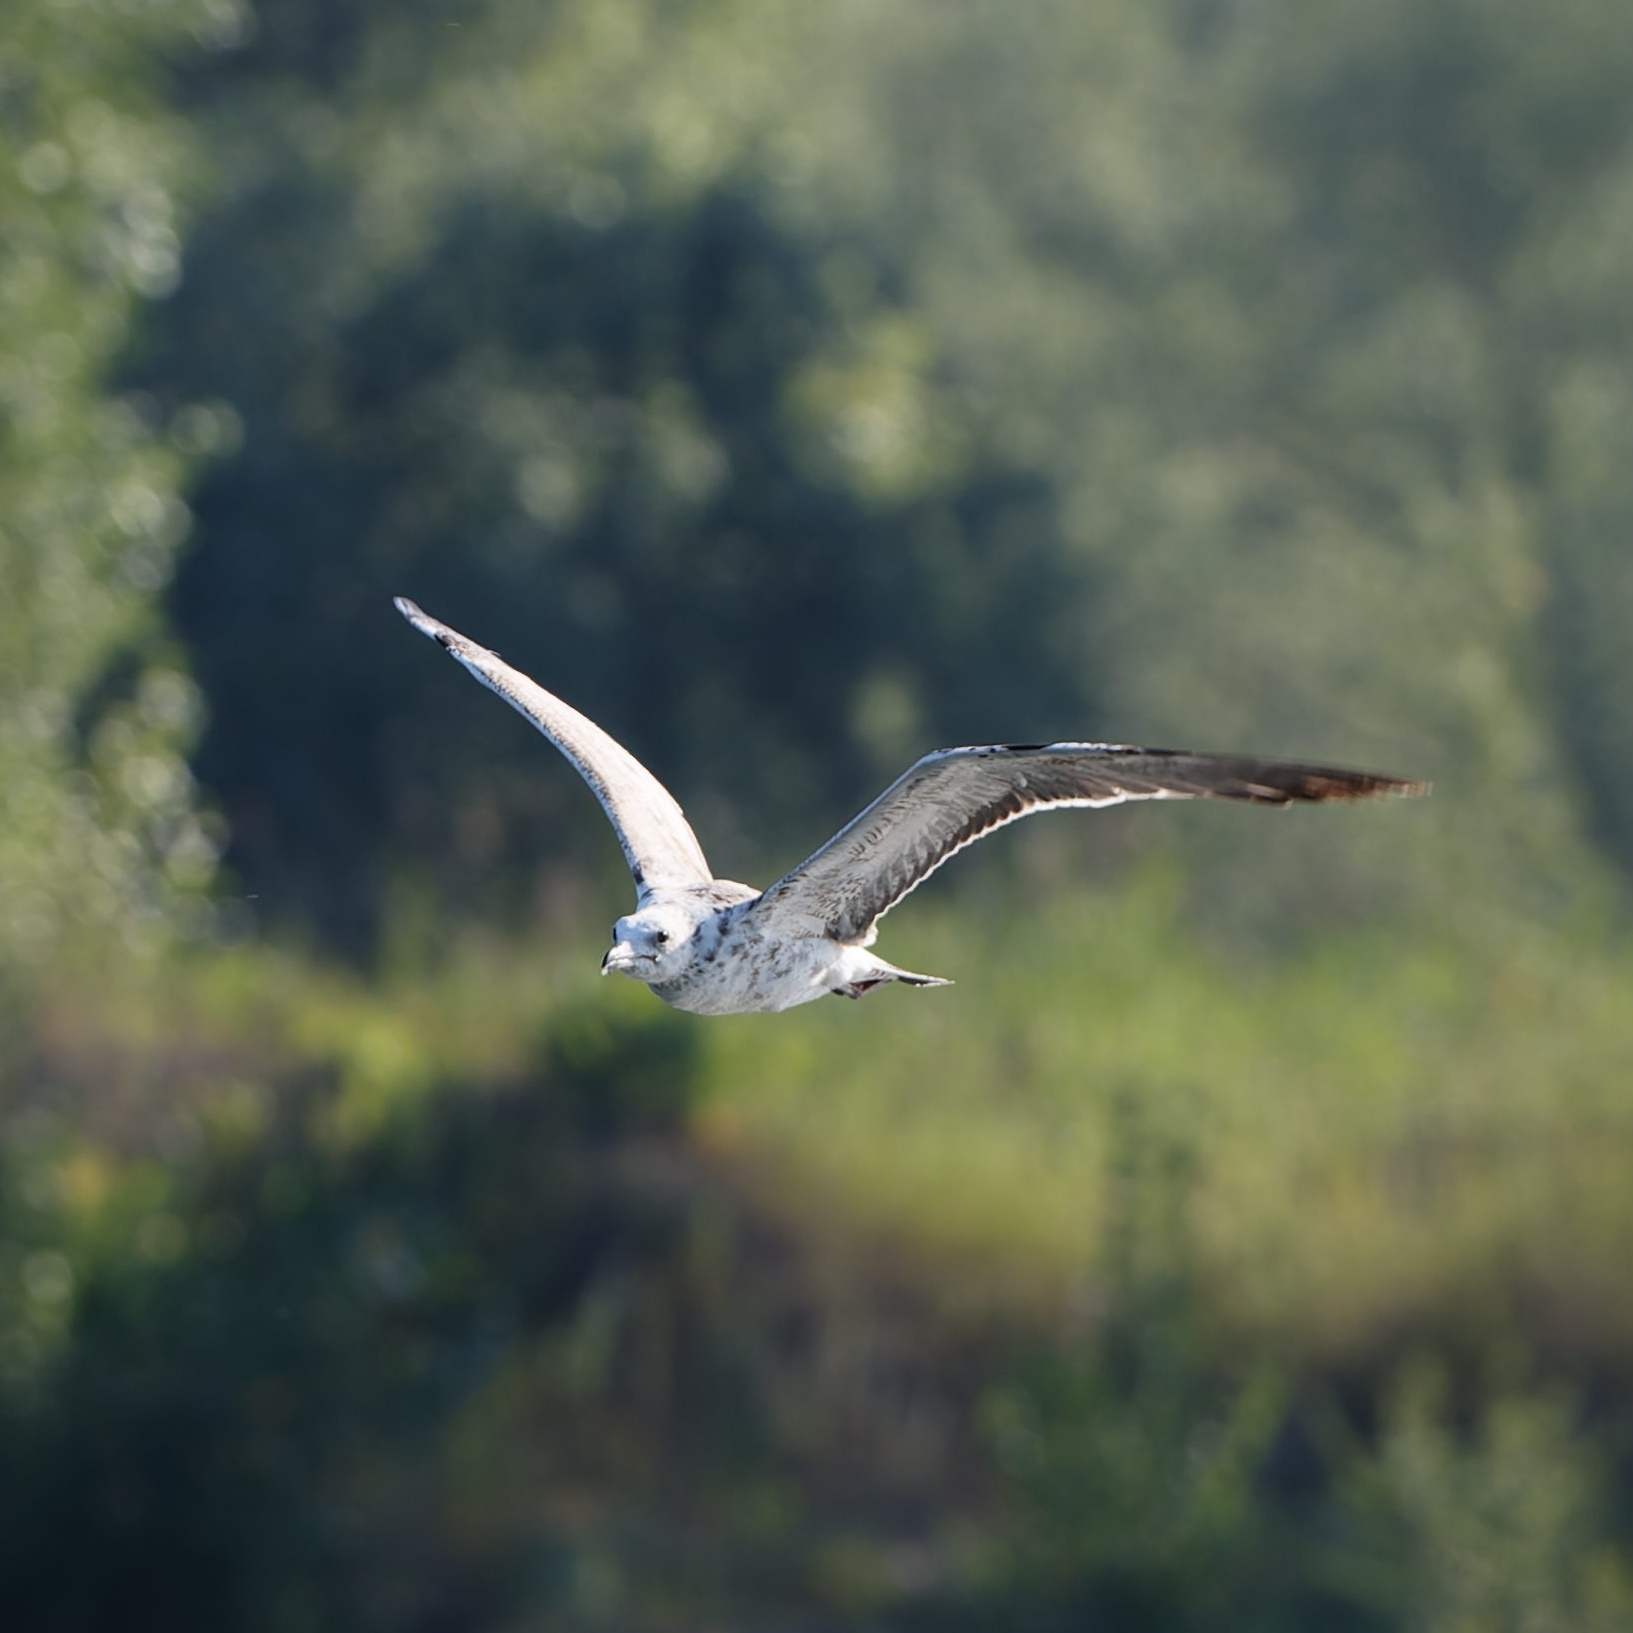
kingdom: Animalia
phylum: Chordata
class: Aves
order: Charadriiformes
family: Laridae
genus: Ichthyaetus
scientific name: Ichthyaetus ichthyaetus
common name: Pallas's gull
